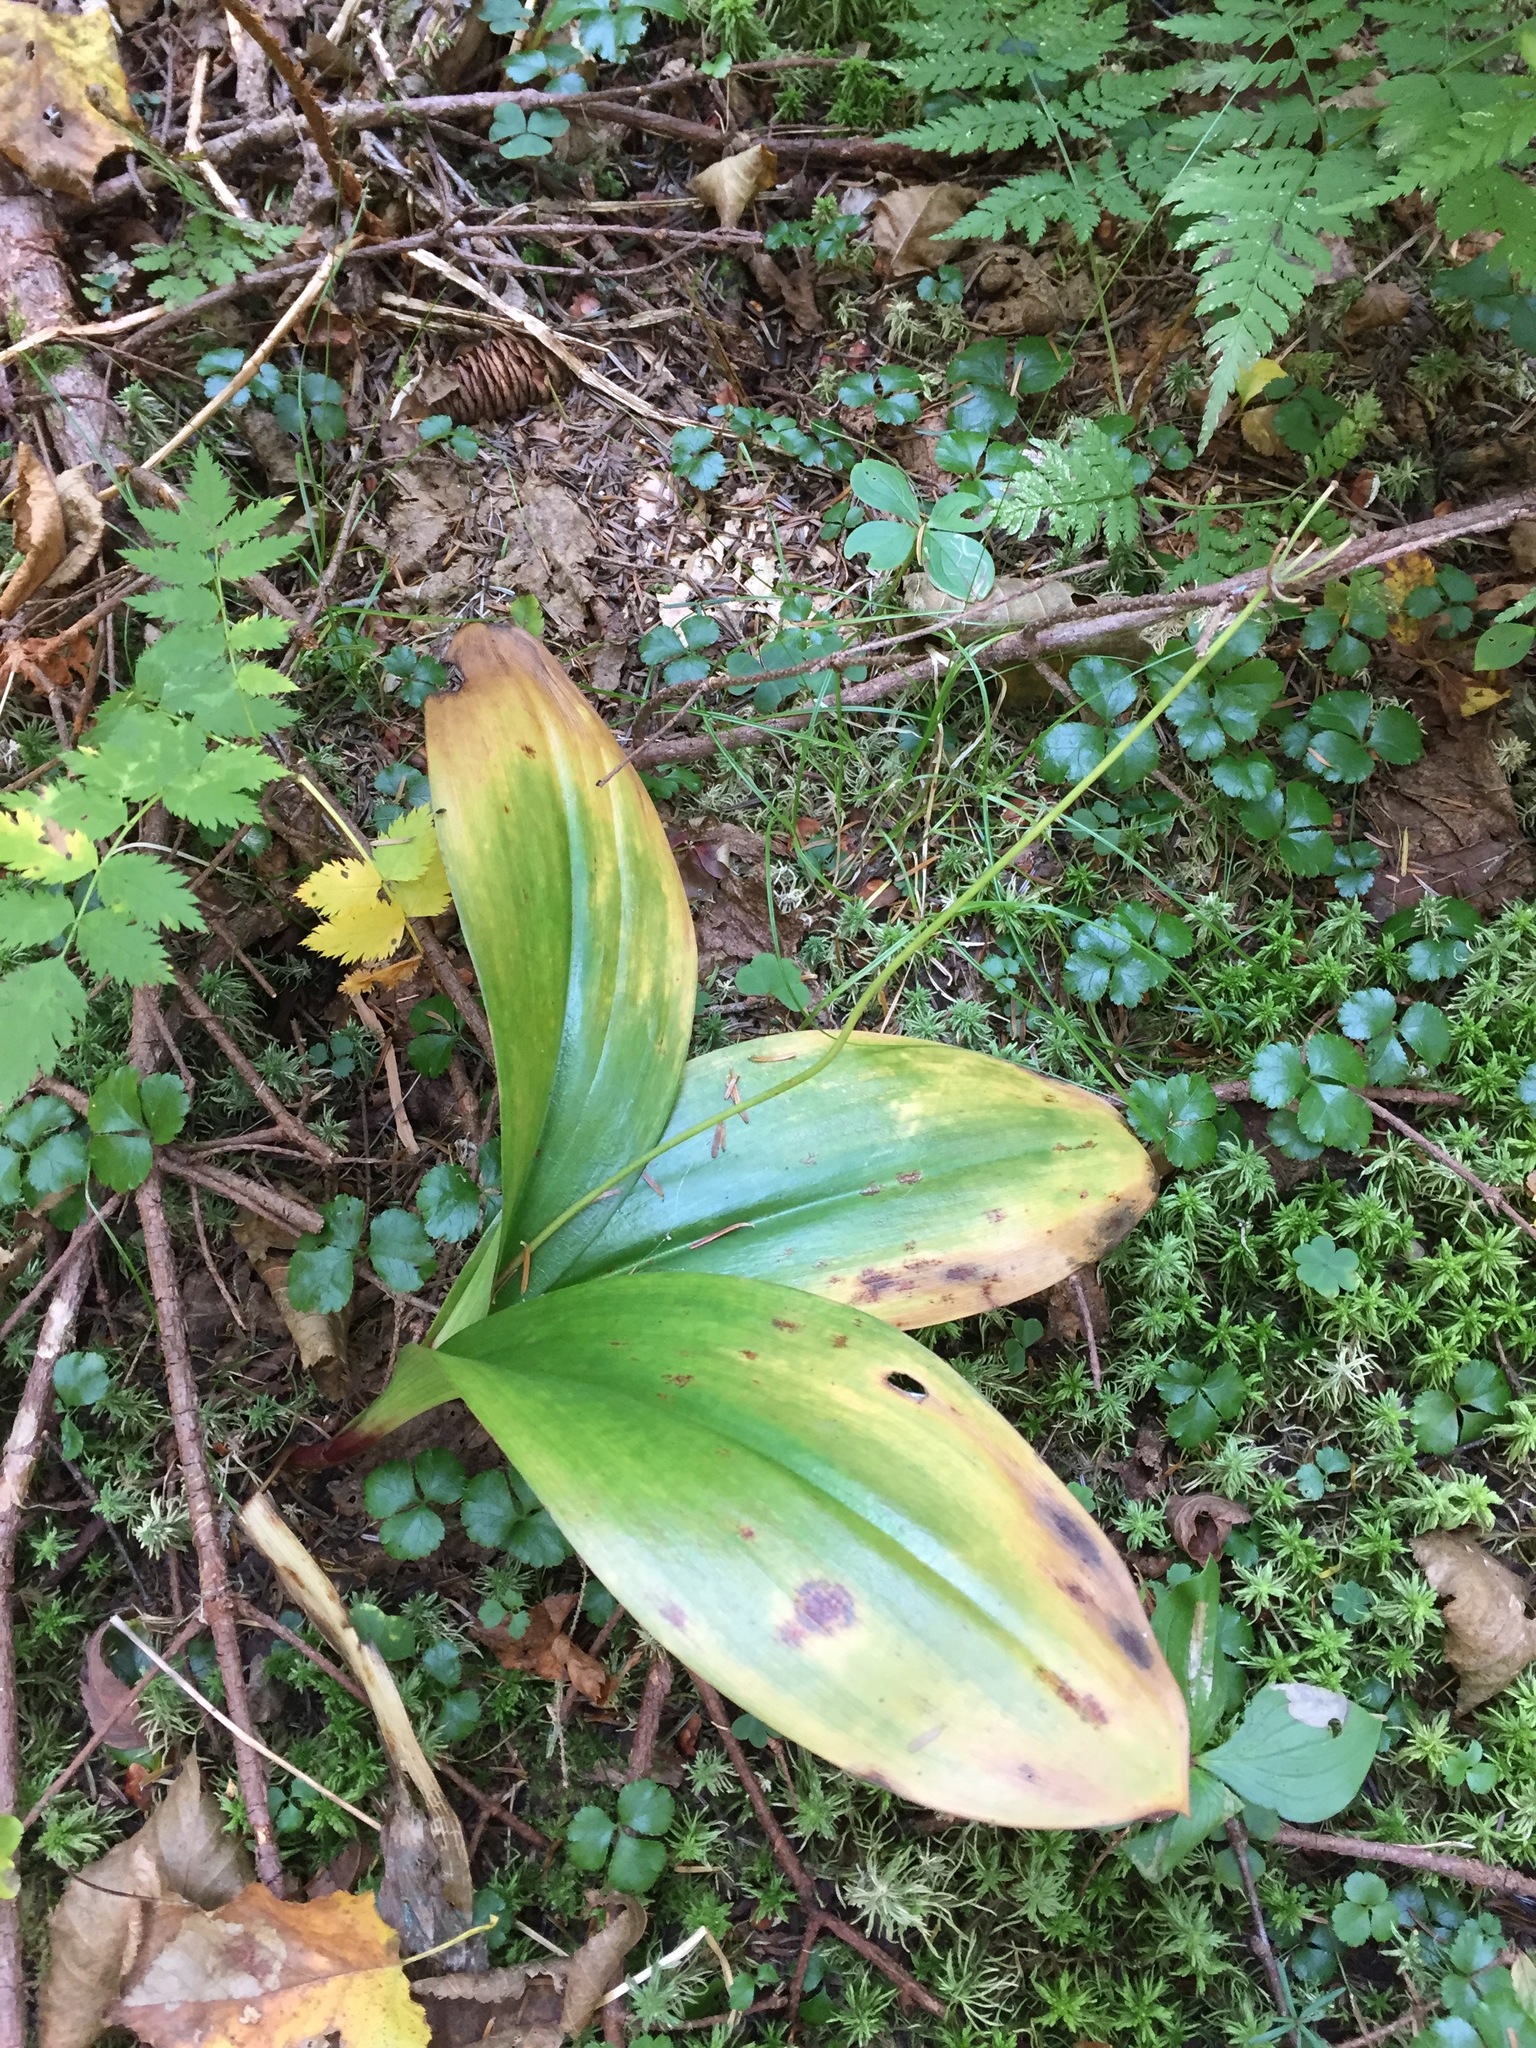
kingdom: Plantae
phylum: Tracheophyta
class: Liliopsida
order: Liliales
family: Liliaceae
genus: Clintonia
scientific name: Clintonia borealis
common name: Yellow clintonia
